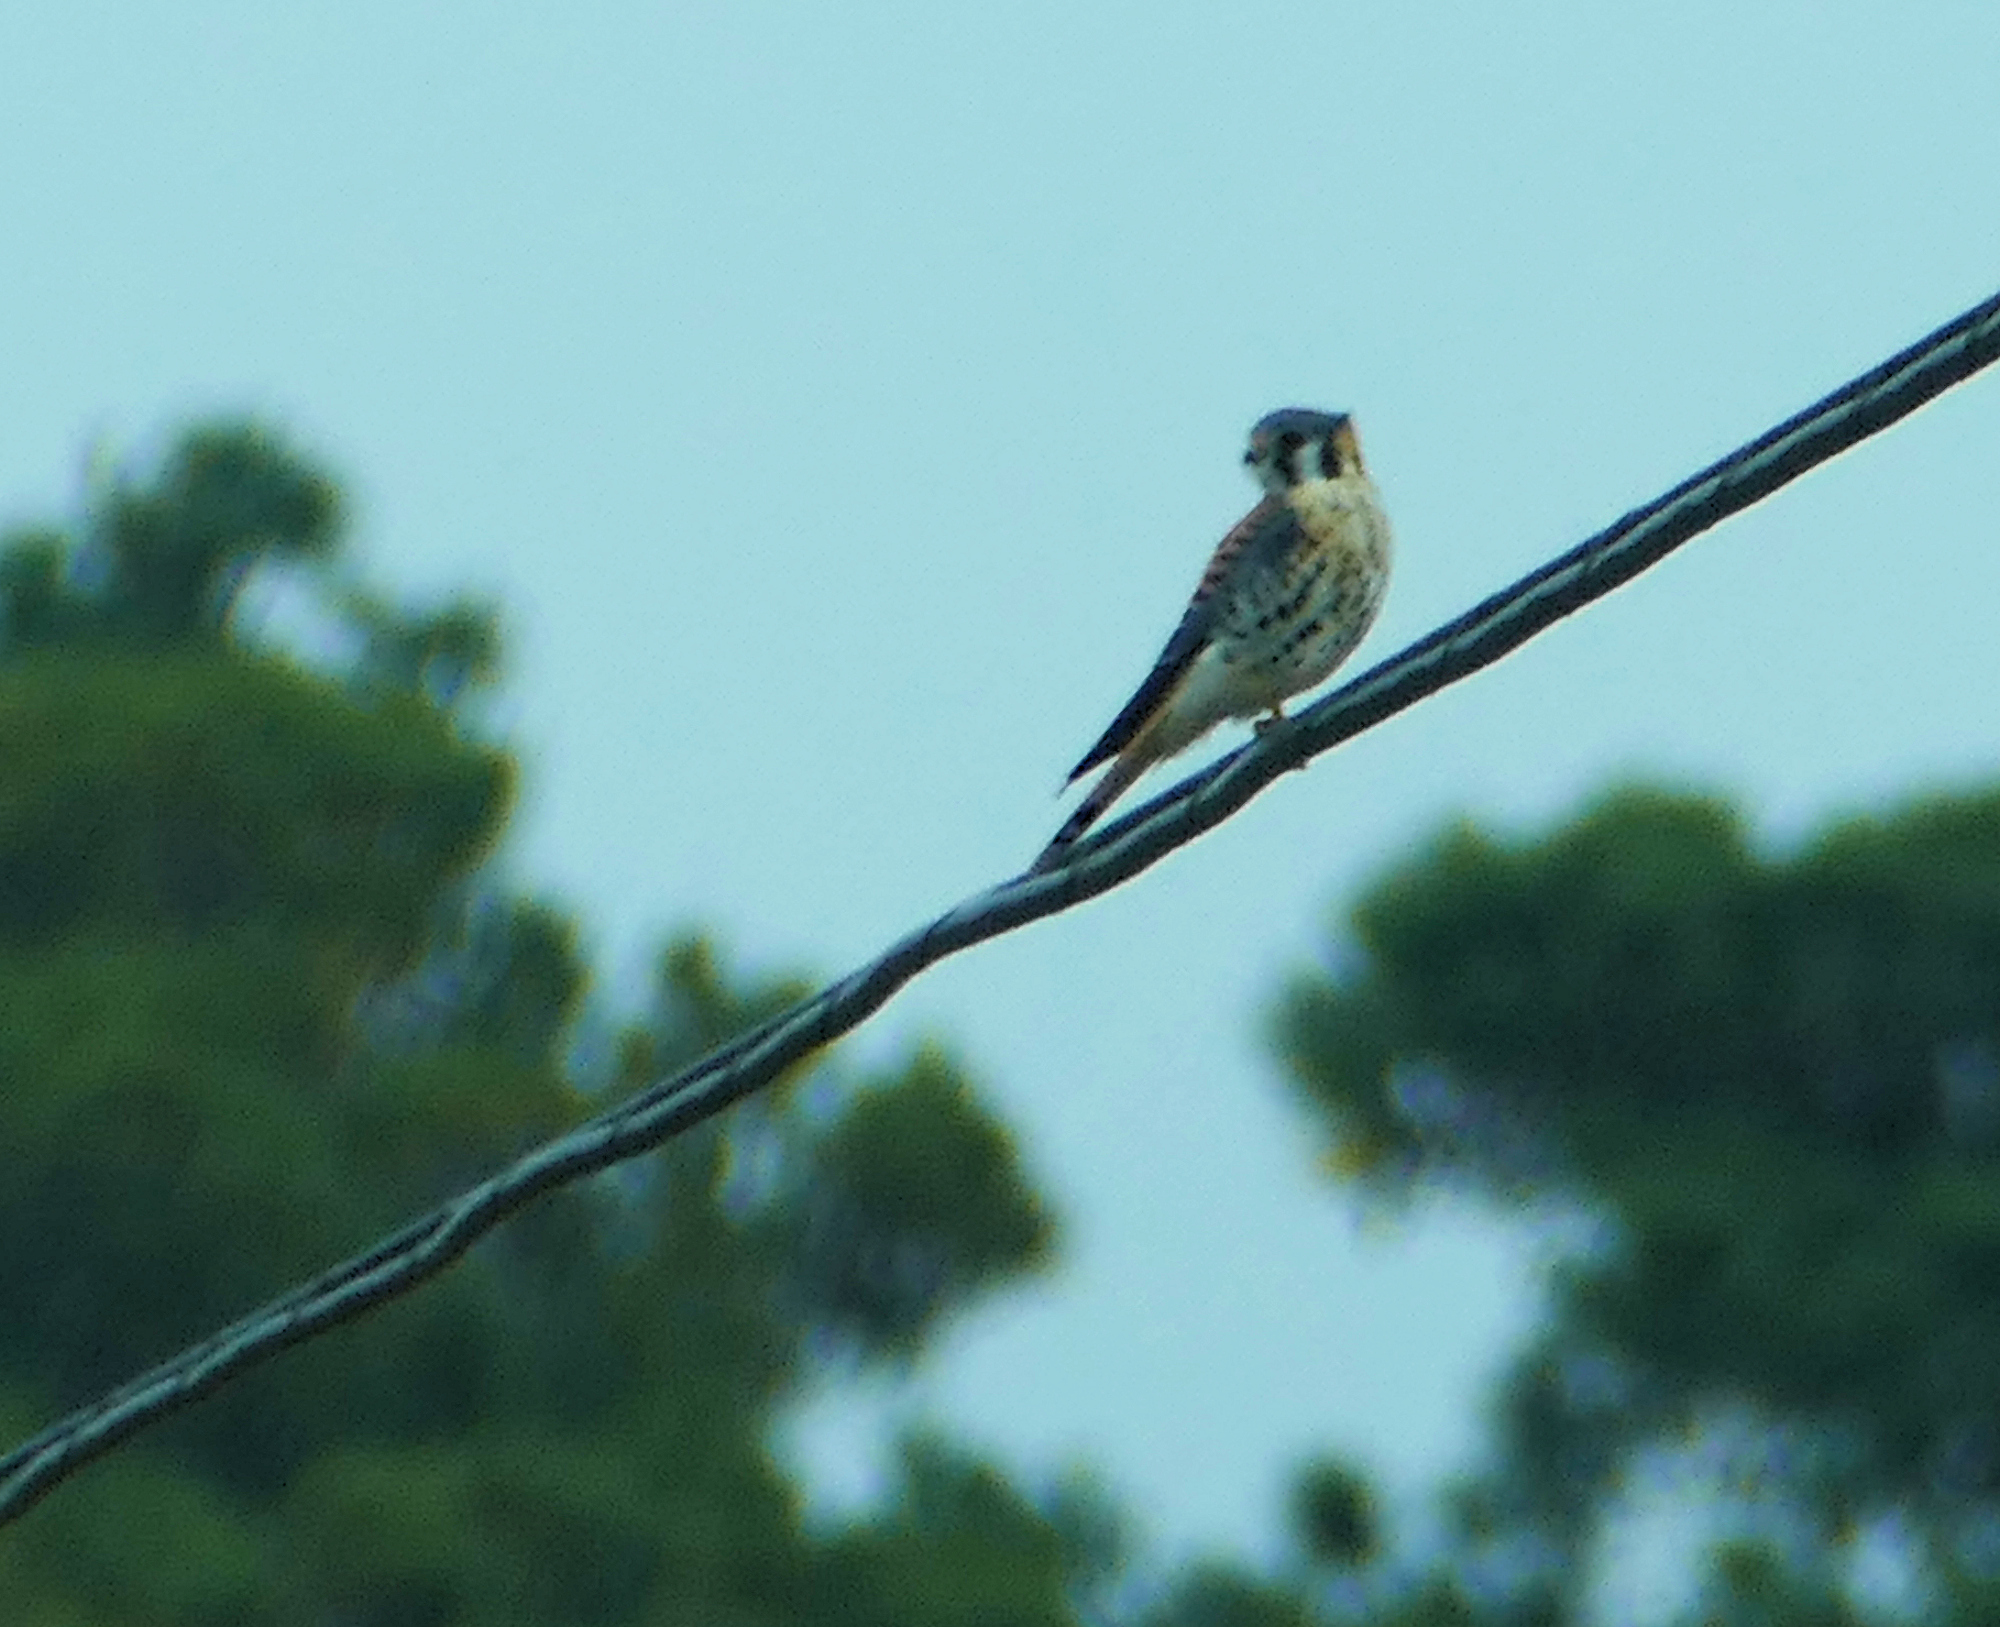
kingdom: Animalia
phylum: Chordata
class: Aves
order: Falconiformes
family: Falconidae
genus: Falco
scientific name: Falco sparverius
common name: American kestrel
